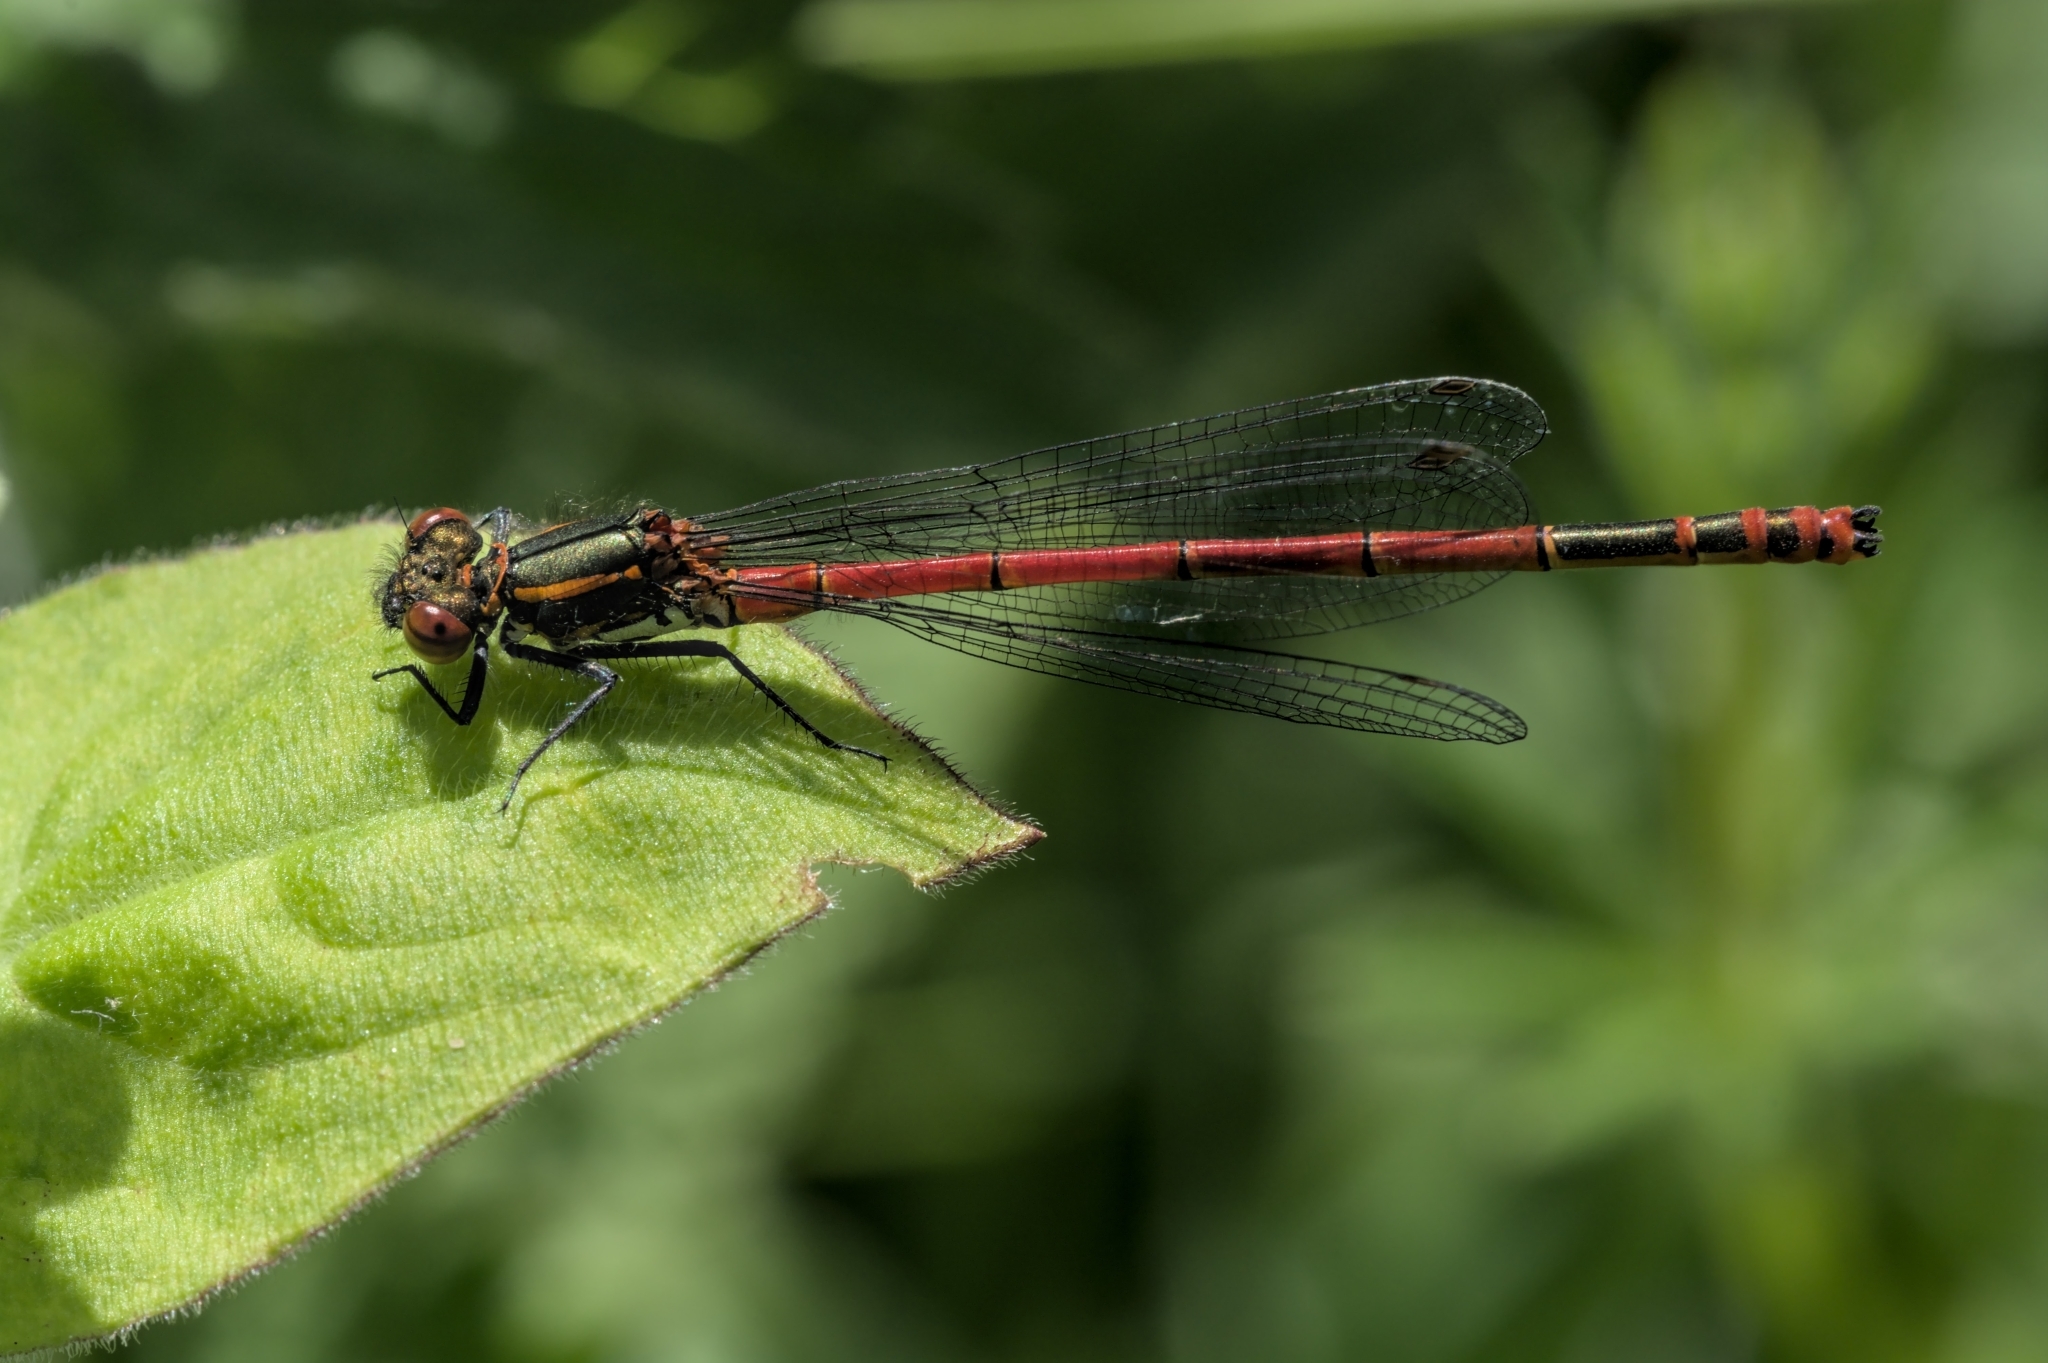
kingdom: Animalia
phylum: Arthropoda
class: Insecta
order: Odonata
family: Coenagrionidae
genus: Pyrrhosoma
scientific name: Pyrrhosoma nymphula
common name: Large red damsel
